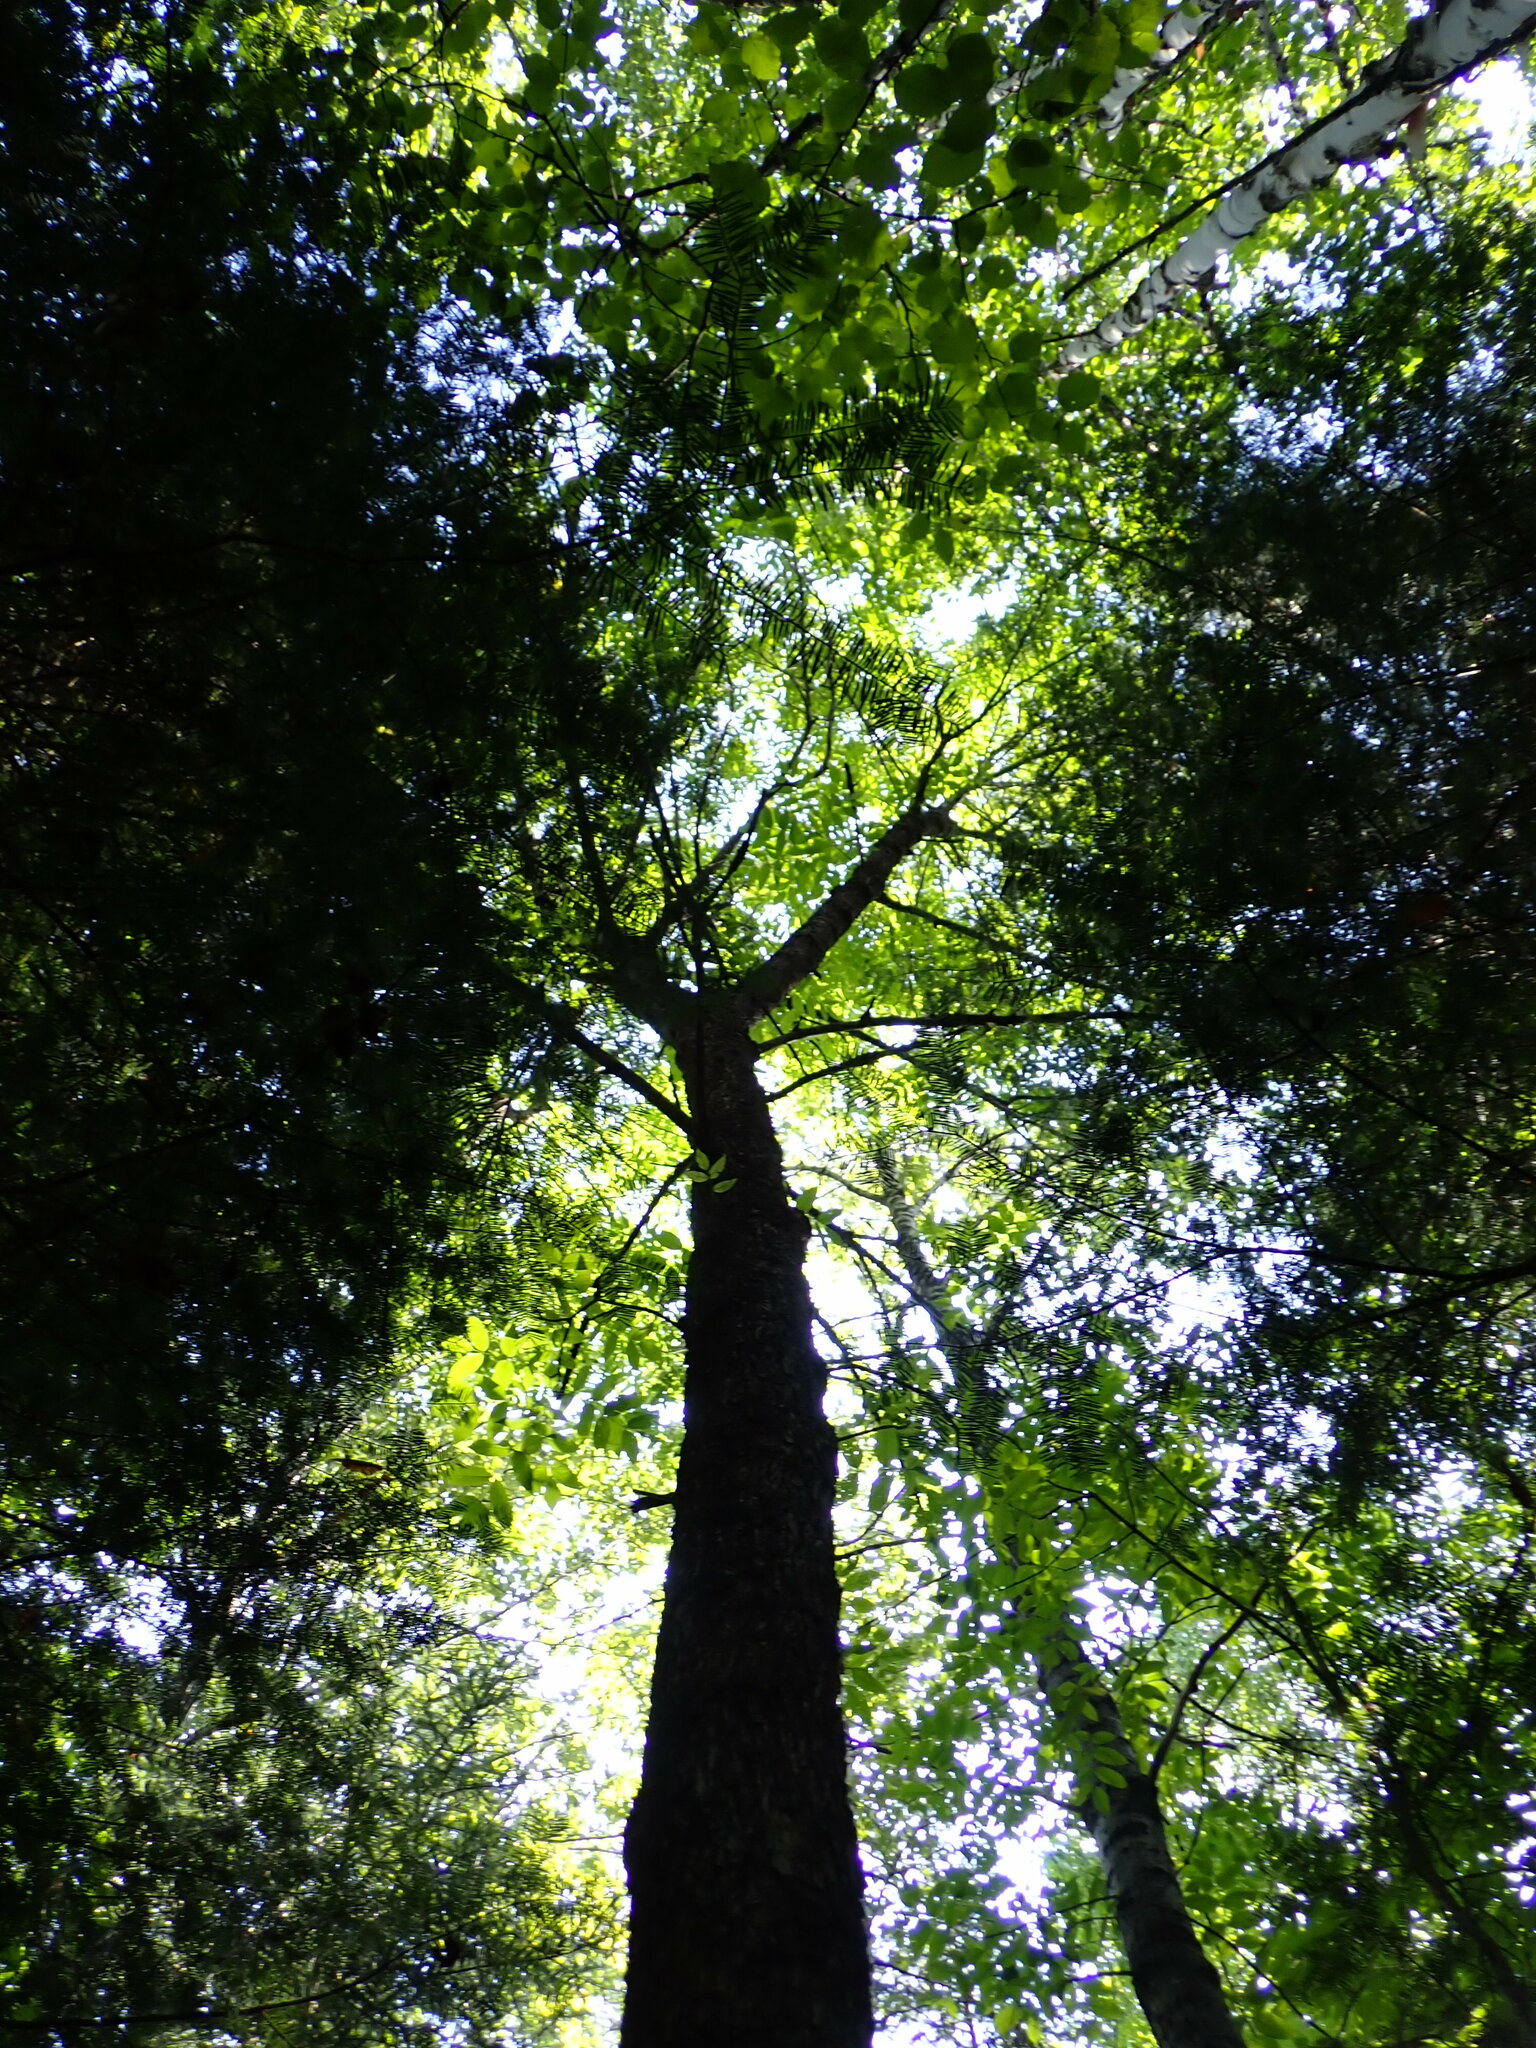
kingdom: Plantae
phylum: Tracheophyta
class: Magnoliopsida
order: Lamiales
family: Oleaceae
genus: Fraxinus
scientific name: Fraxinus nigra
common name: Black ash
